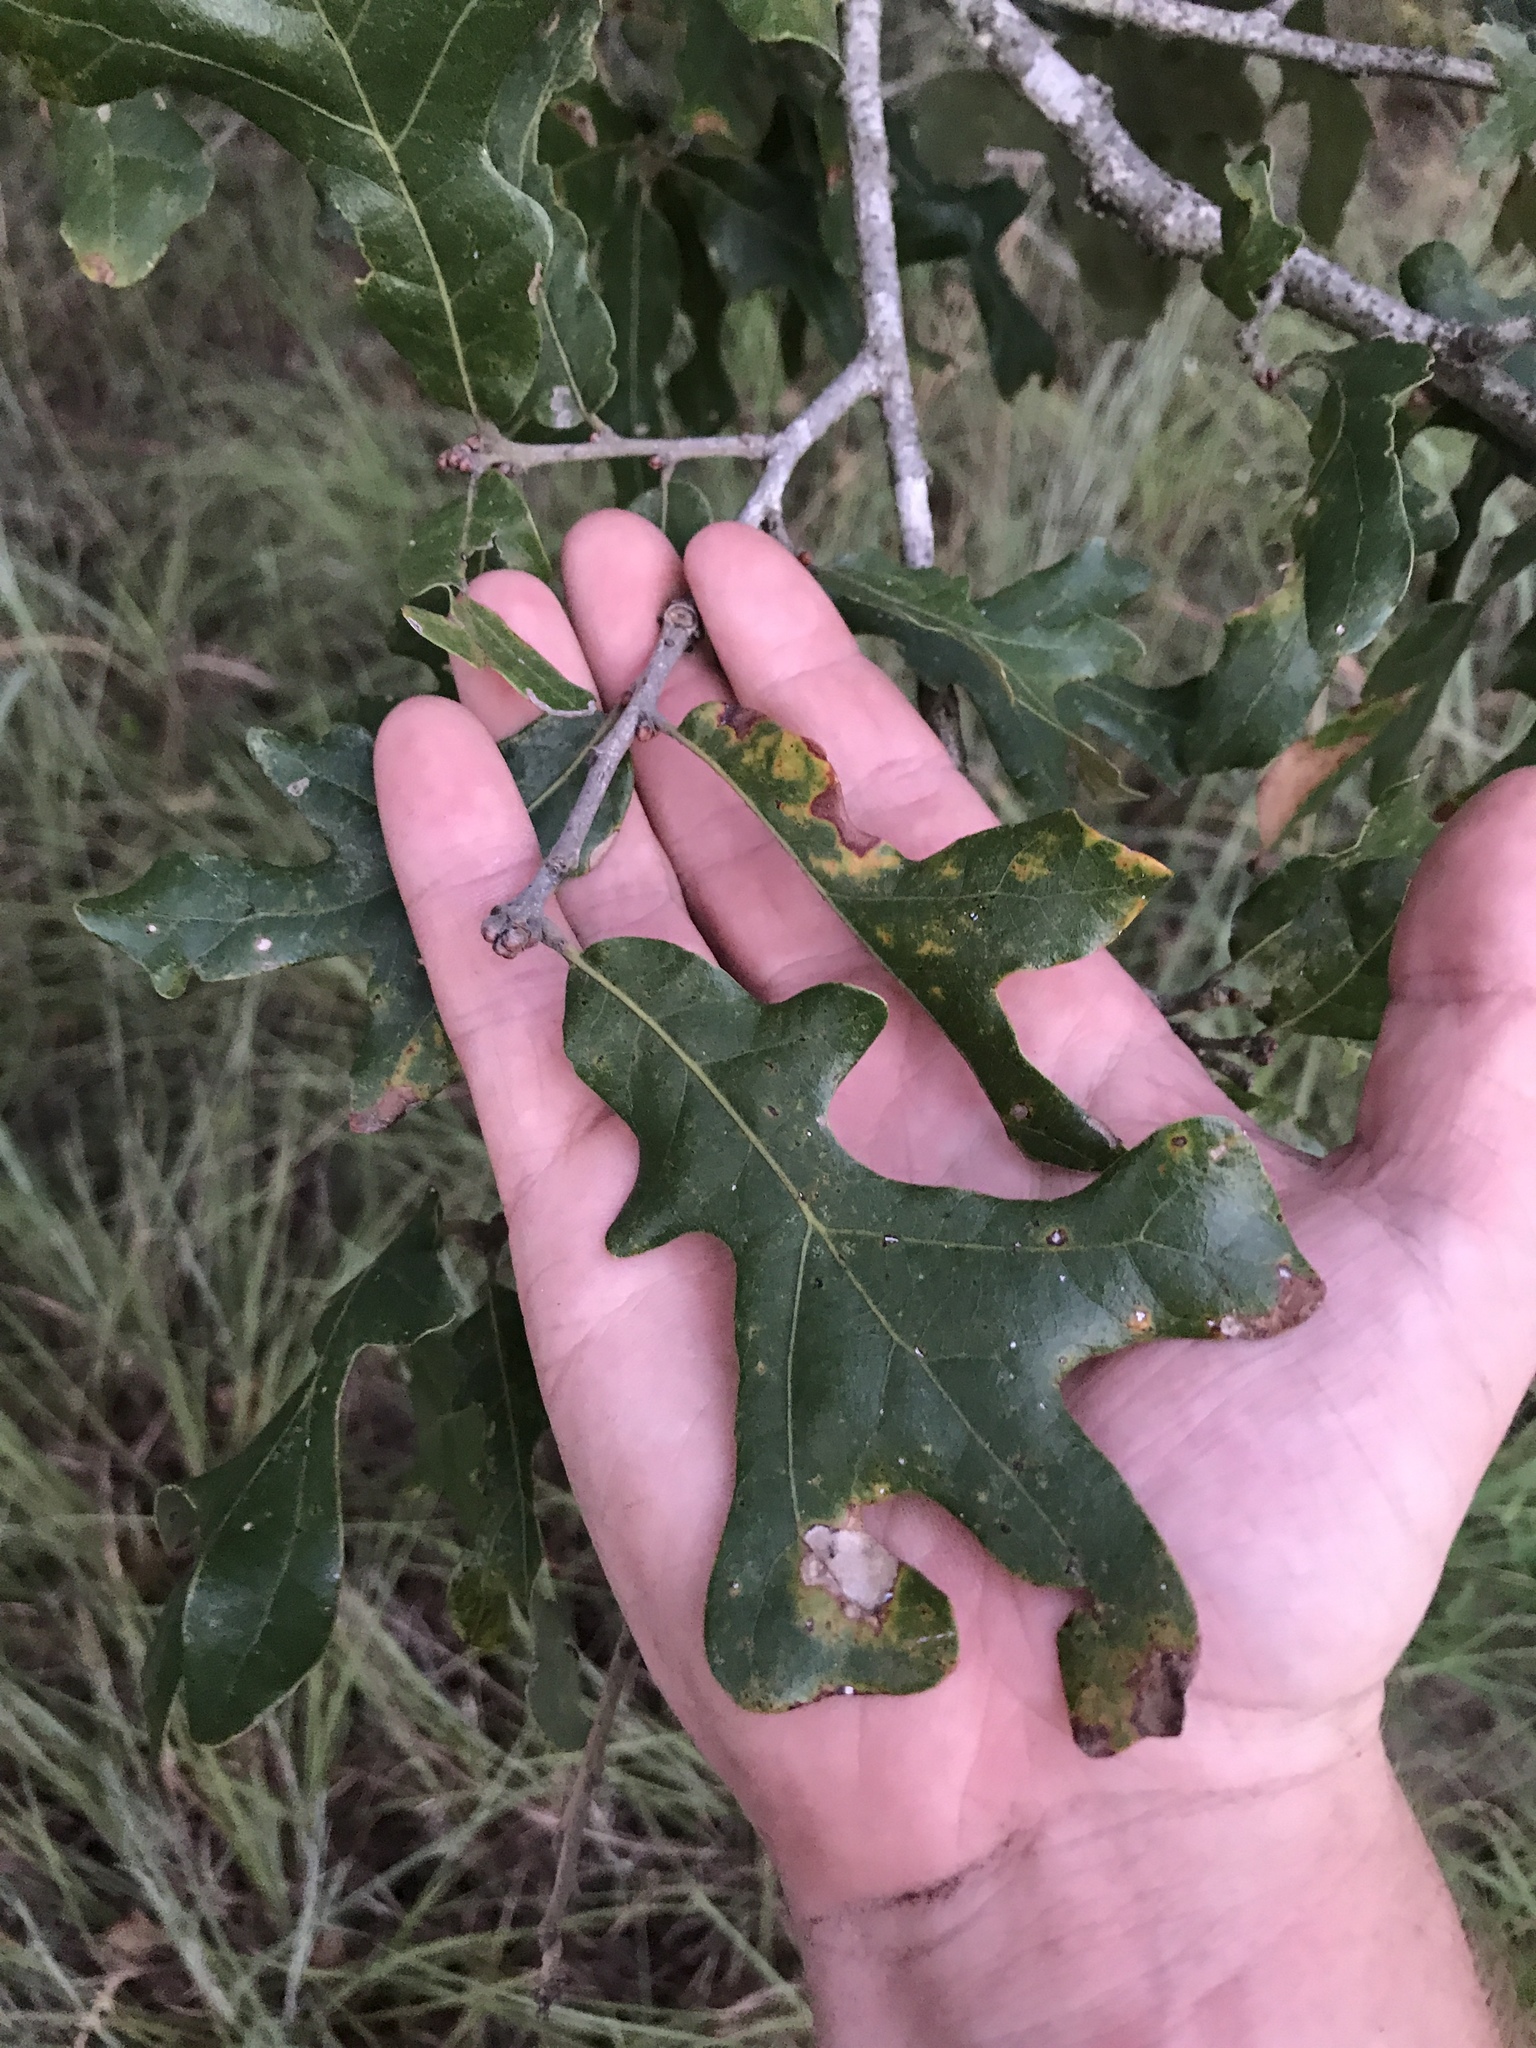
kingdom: Plantae
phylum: Tracheophyta
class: Magnoliopsida
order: Fagales
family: Fagaceae
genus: Quercus
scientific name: Quercus stellata
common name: Post oak
